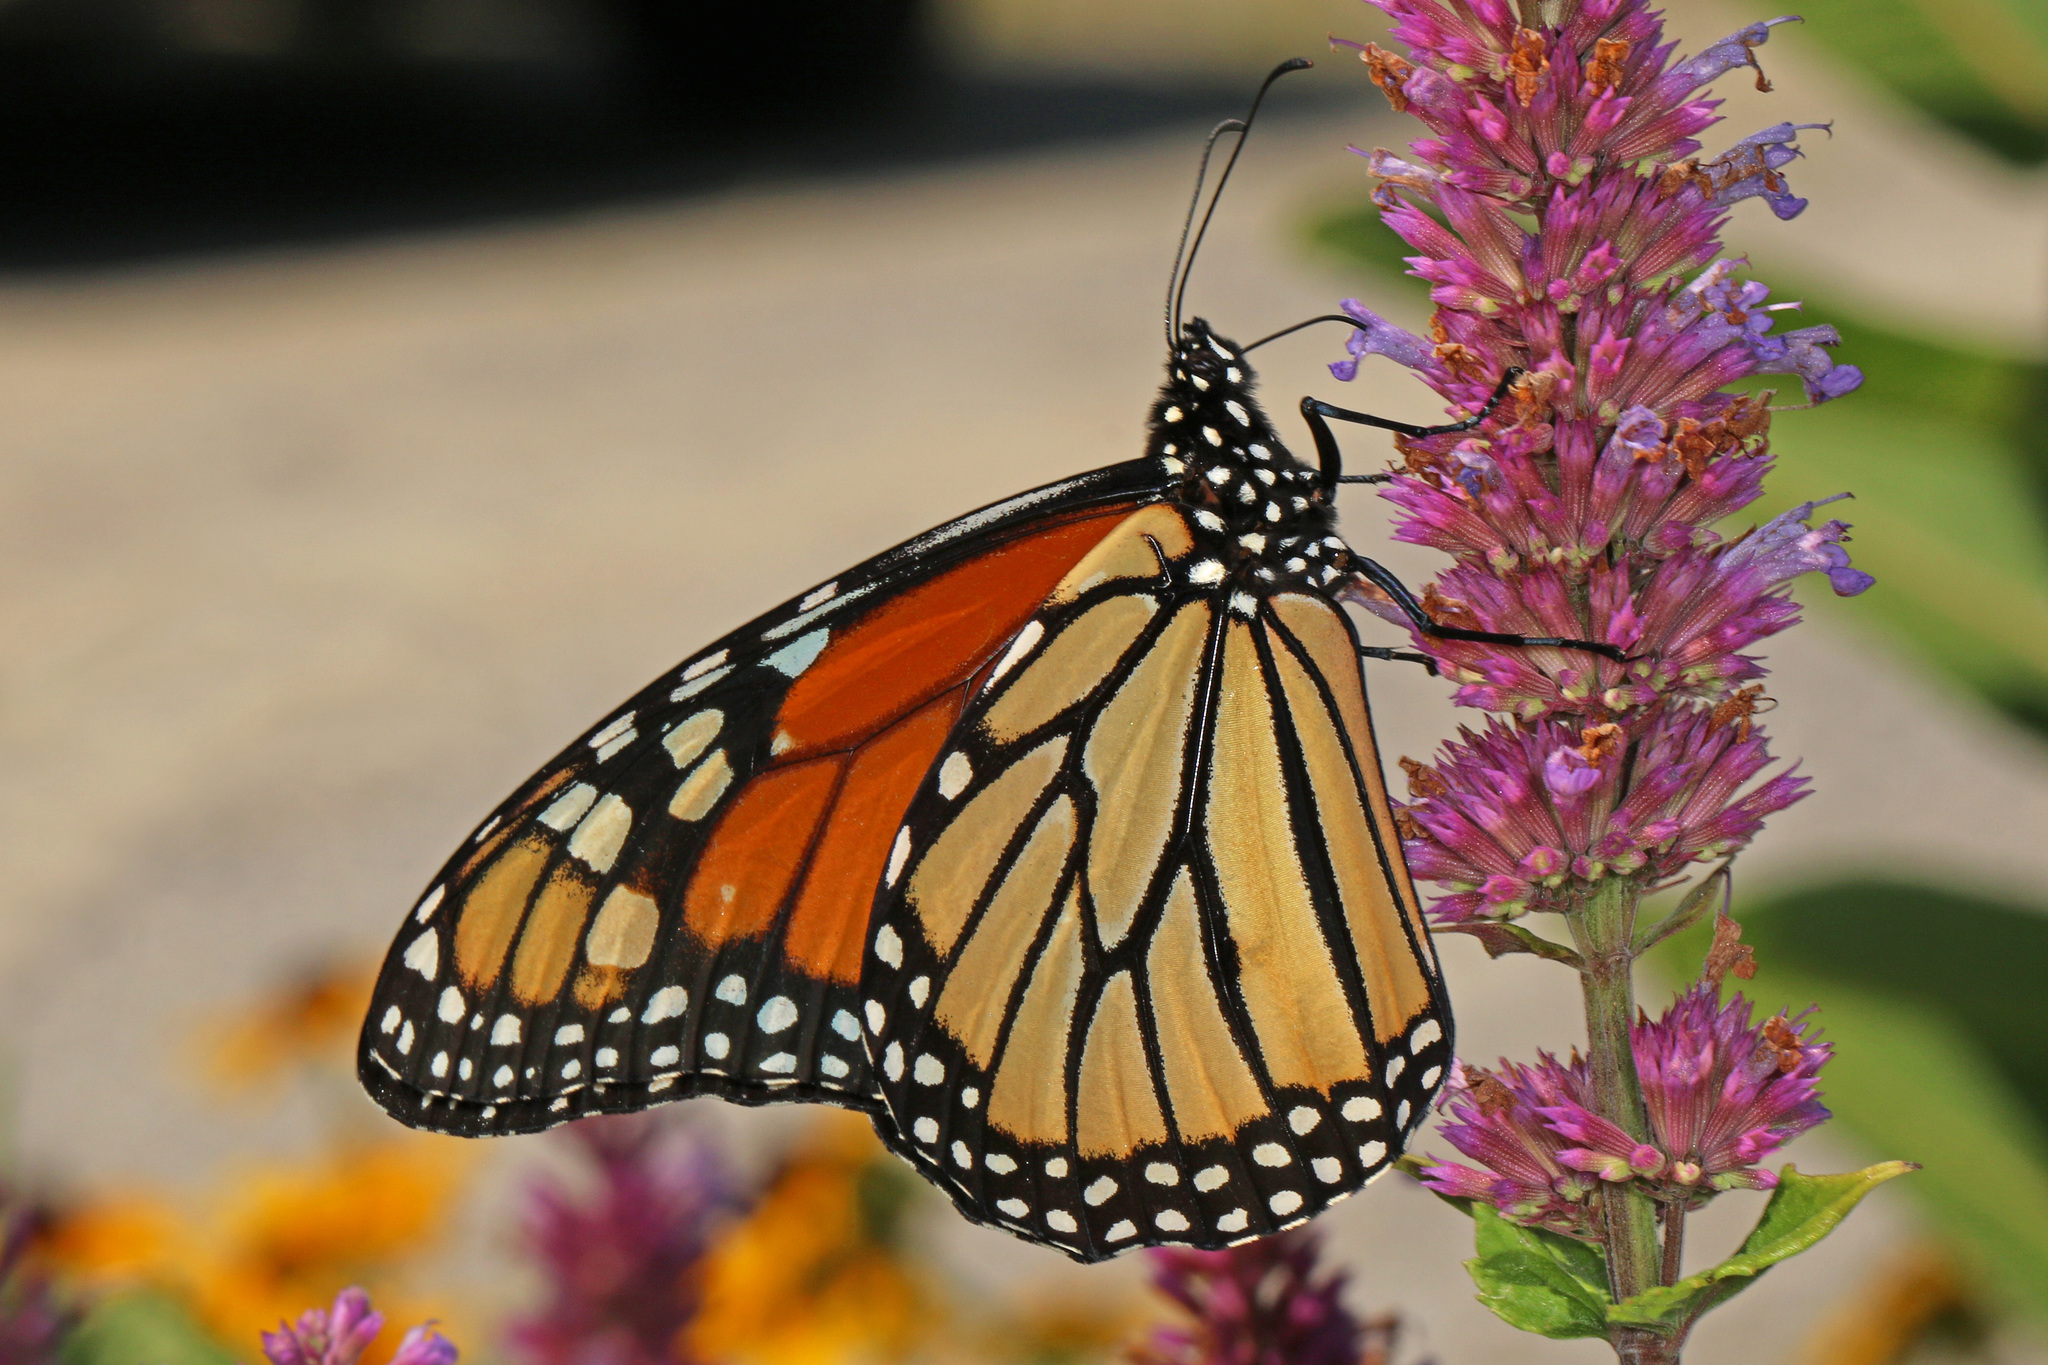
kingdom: Animalia
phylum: Arthropoda
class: Insecta
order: Lepidoptera
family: Nymphalidae
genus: Danaus
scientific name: Danaus plexippus
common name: Monarch
